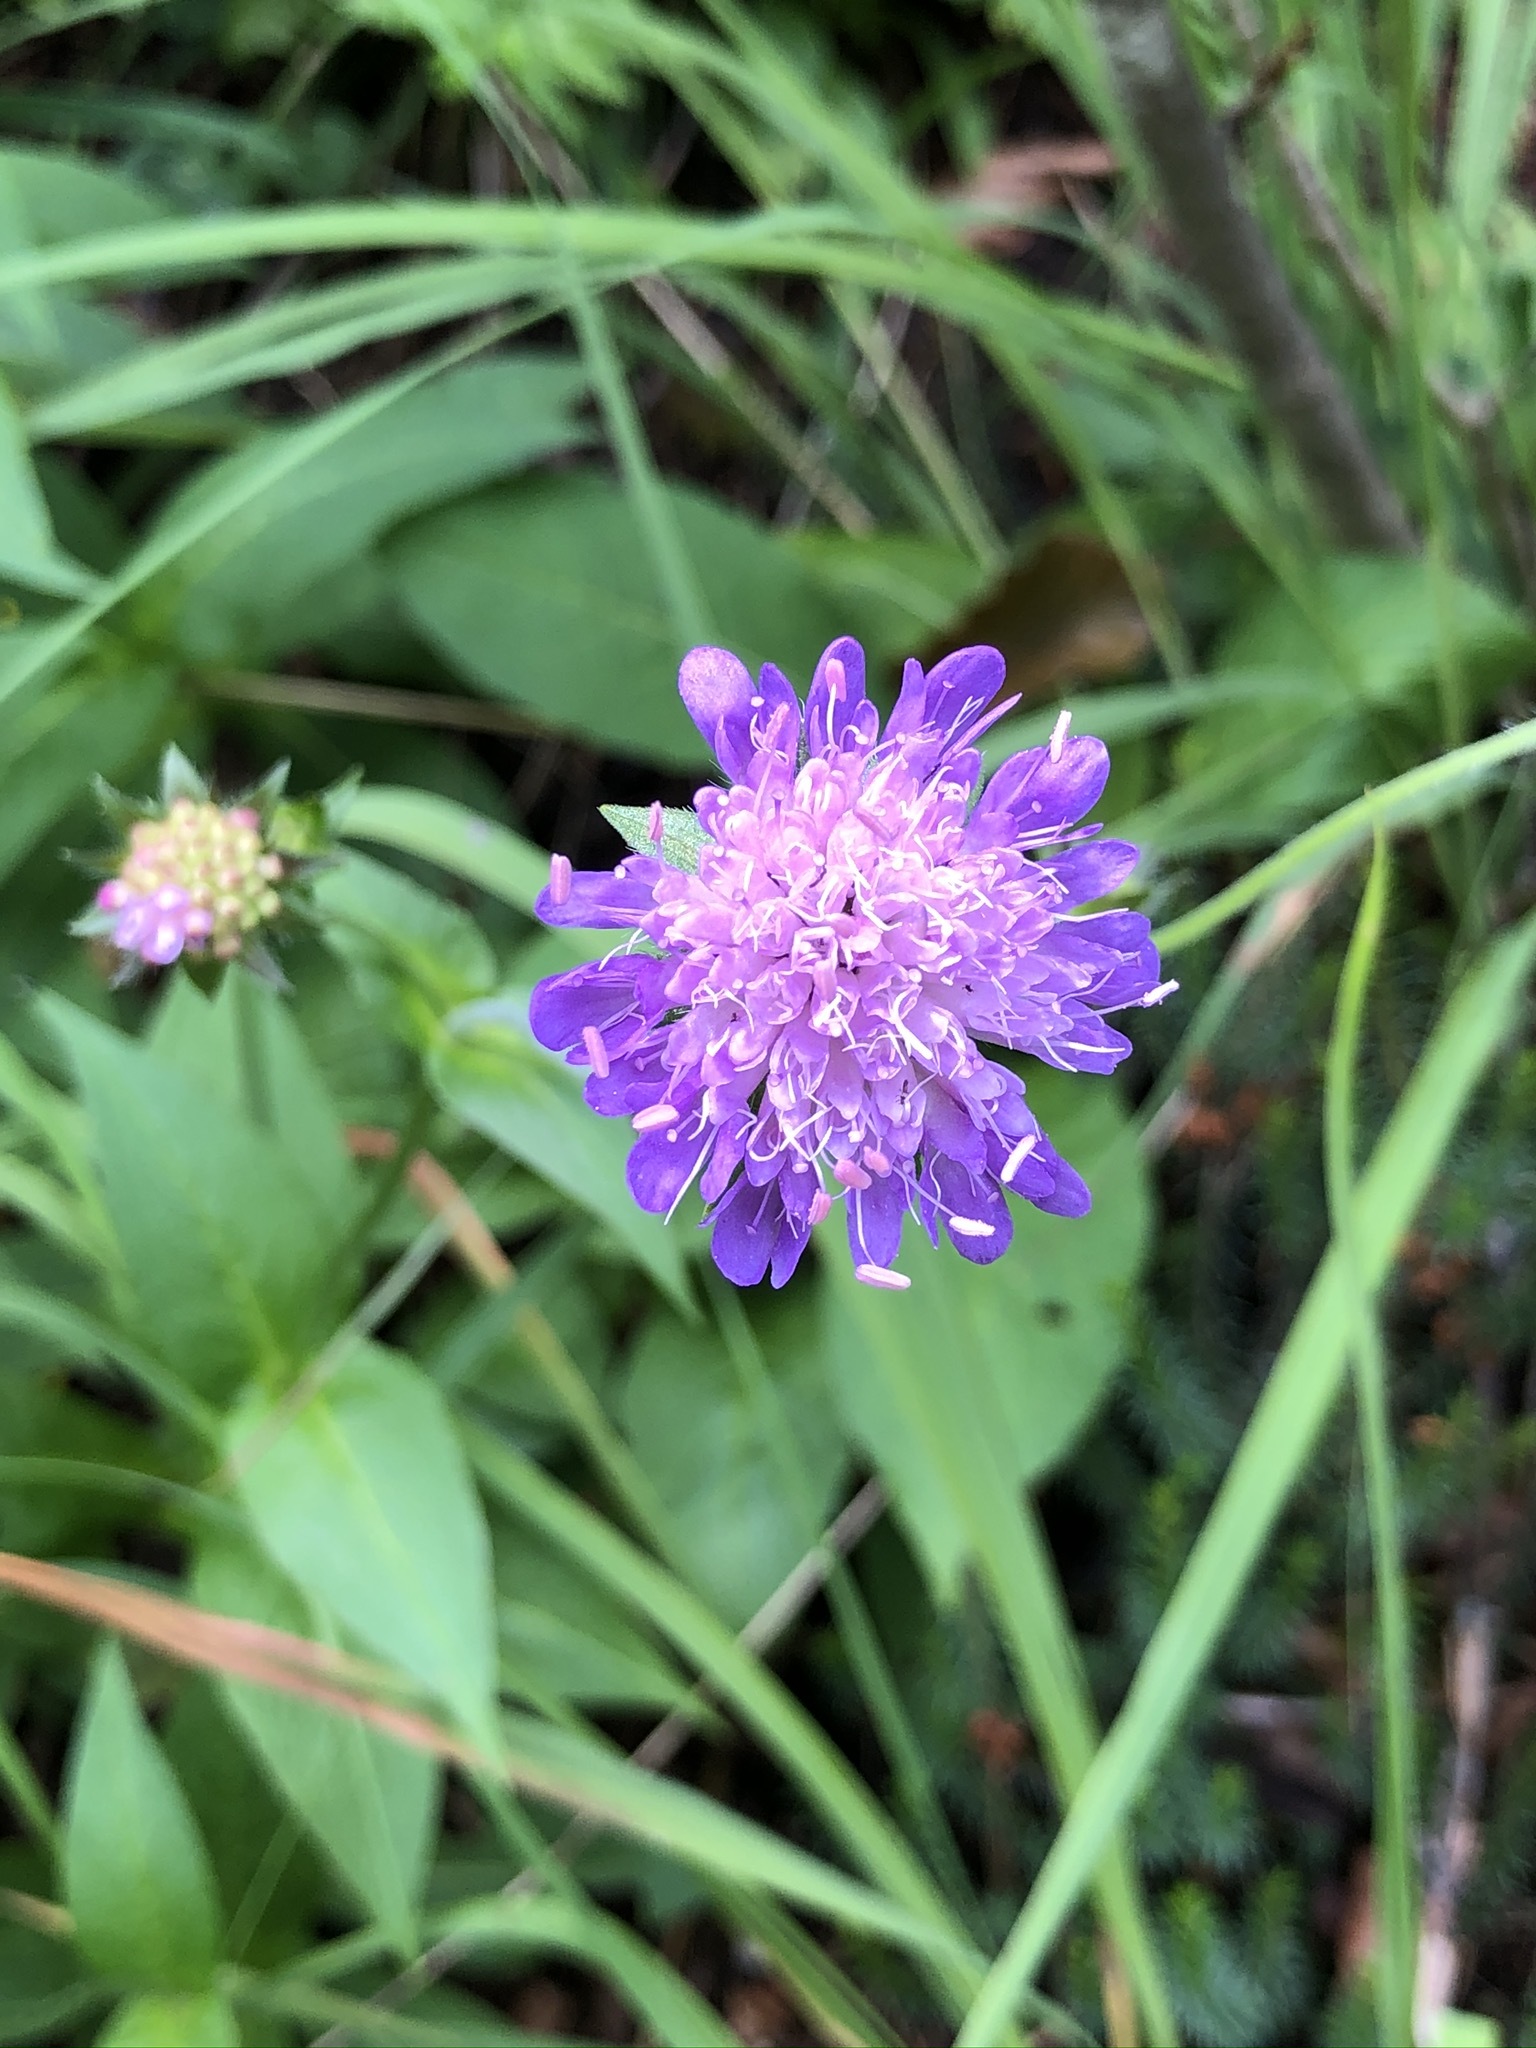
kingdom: Plantae
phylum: Tracheophyta
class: Magnoliopsida
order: Dipsacales
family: Caprifoliaceae
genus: Knautia
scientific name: Knautia dipsacifolia
